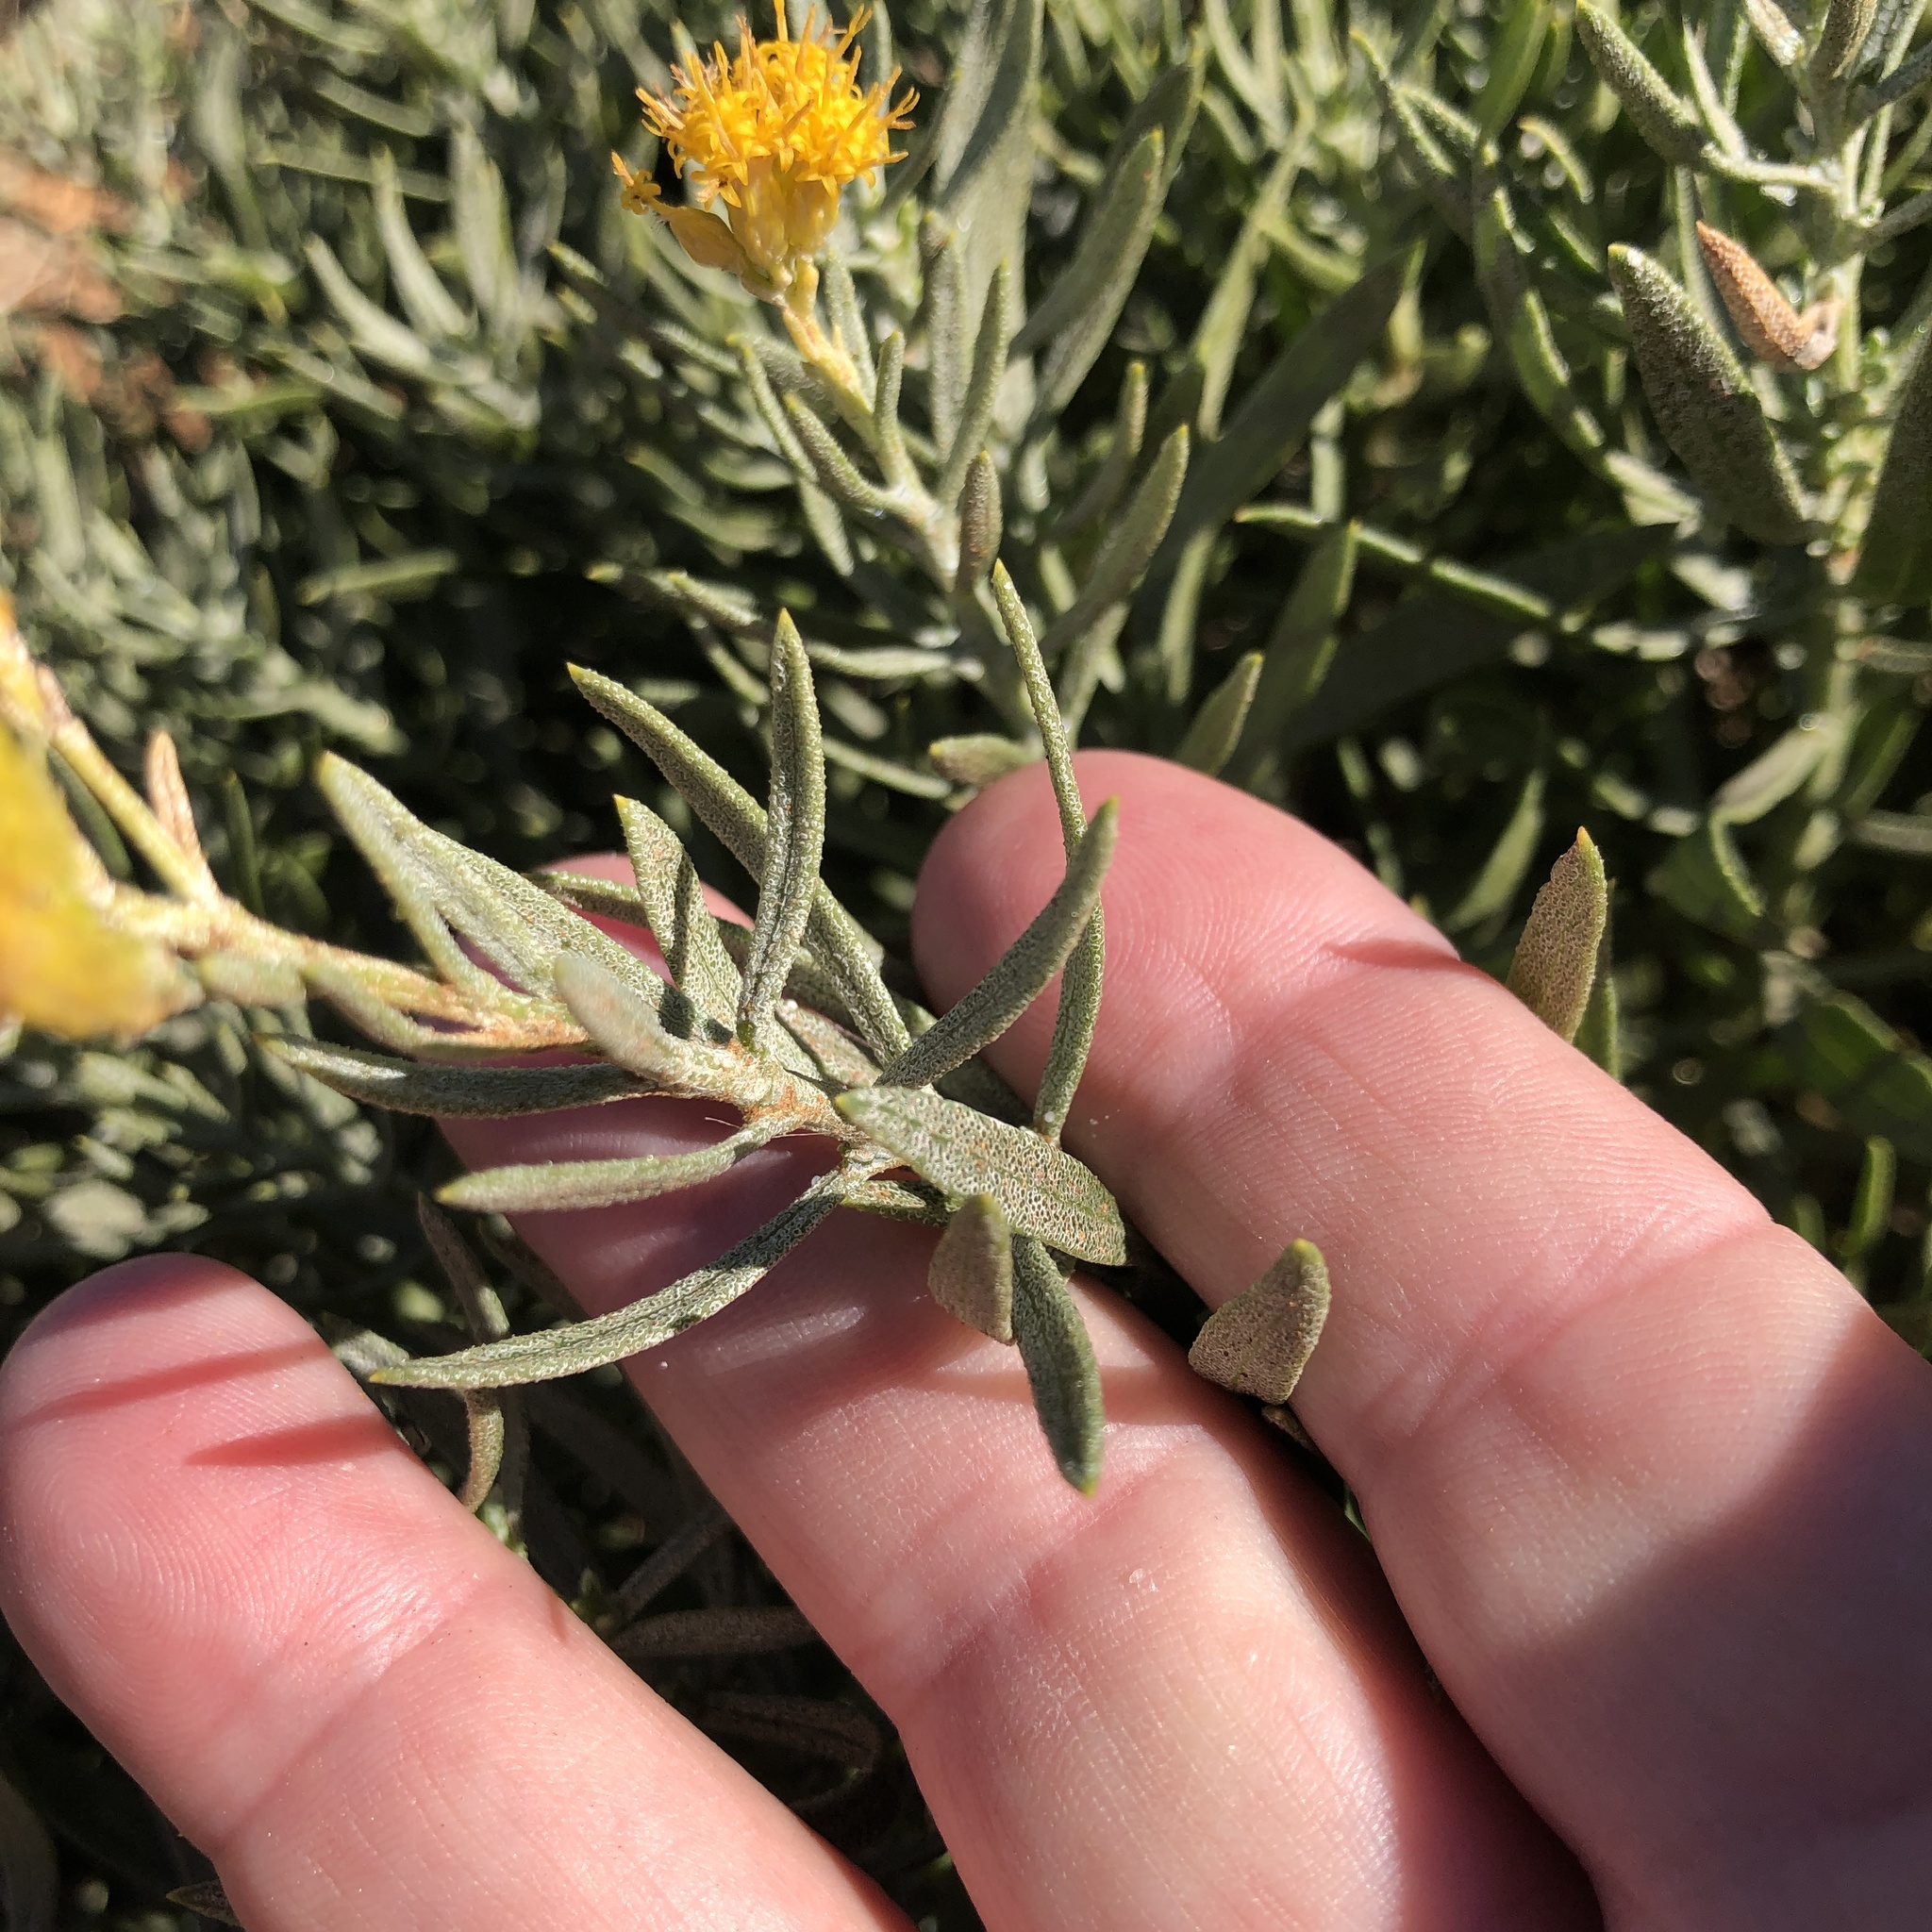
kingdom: Plantae
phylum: Tracheophyta
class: Magnoliopsida
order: Asterales
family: Asteraceae
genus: Ericameria
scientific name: Ericameria parishii
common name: Parish's goldenbush
